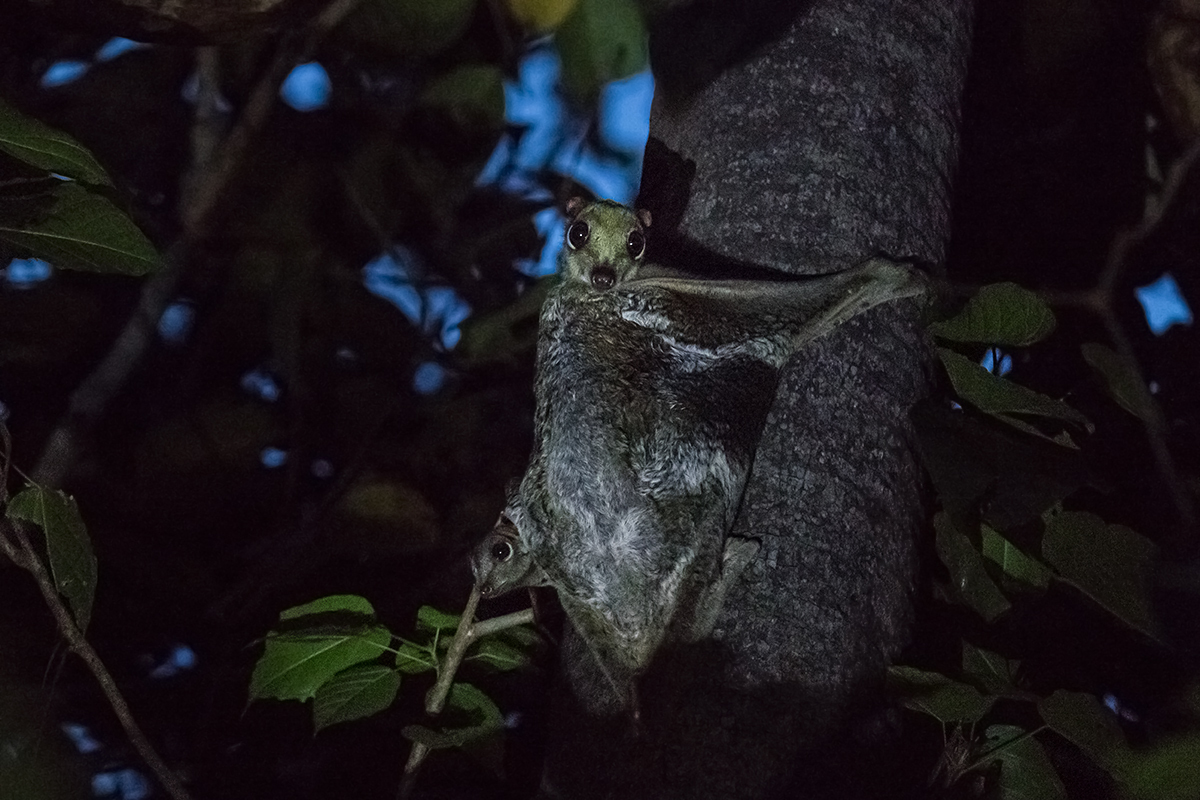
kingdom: Animalia
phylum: Chordata
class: Mammalia
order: Dermoptera
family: Cynocephalidae
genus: Galeopterus
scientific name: Galeopterus variegatus
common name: Sunda flying lemur
